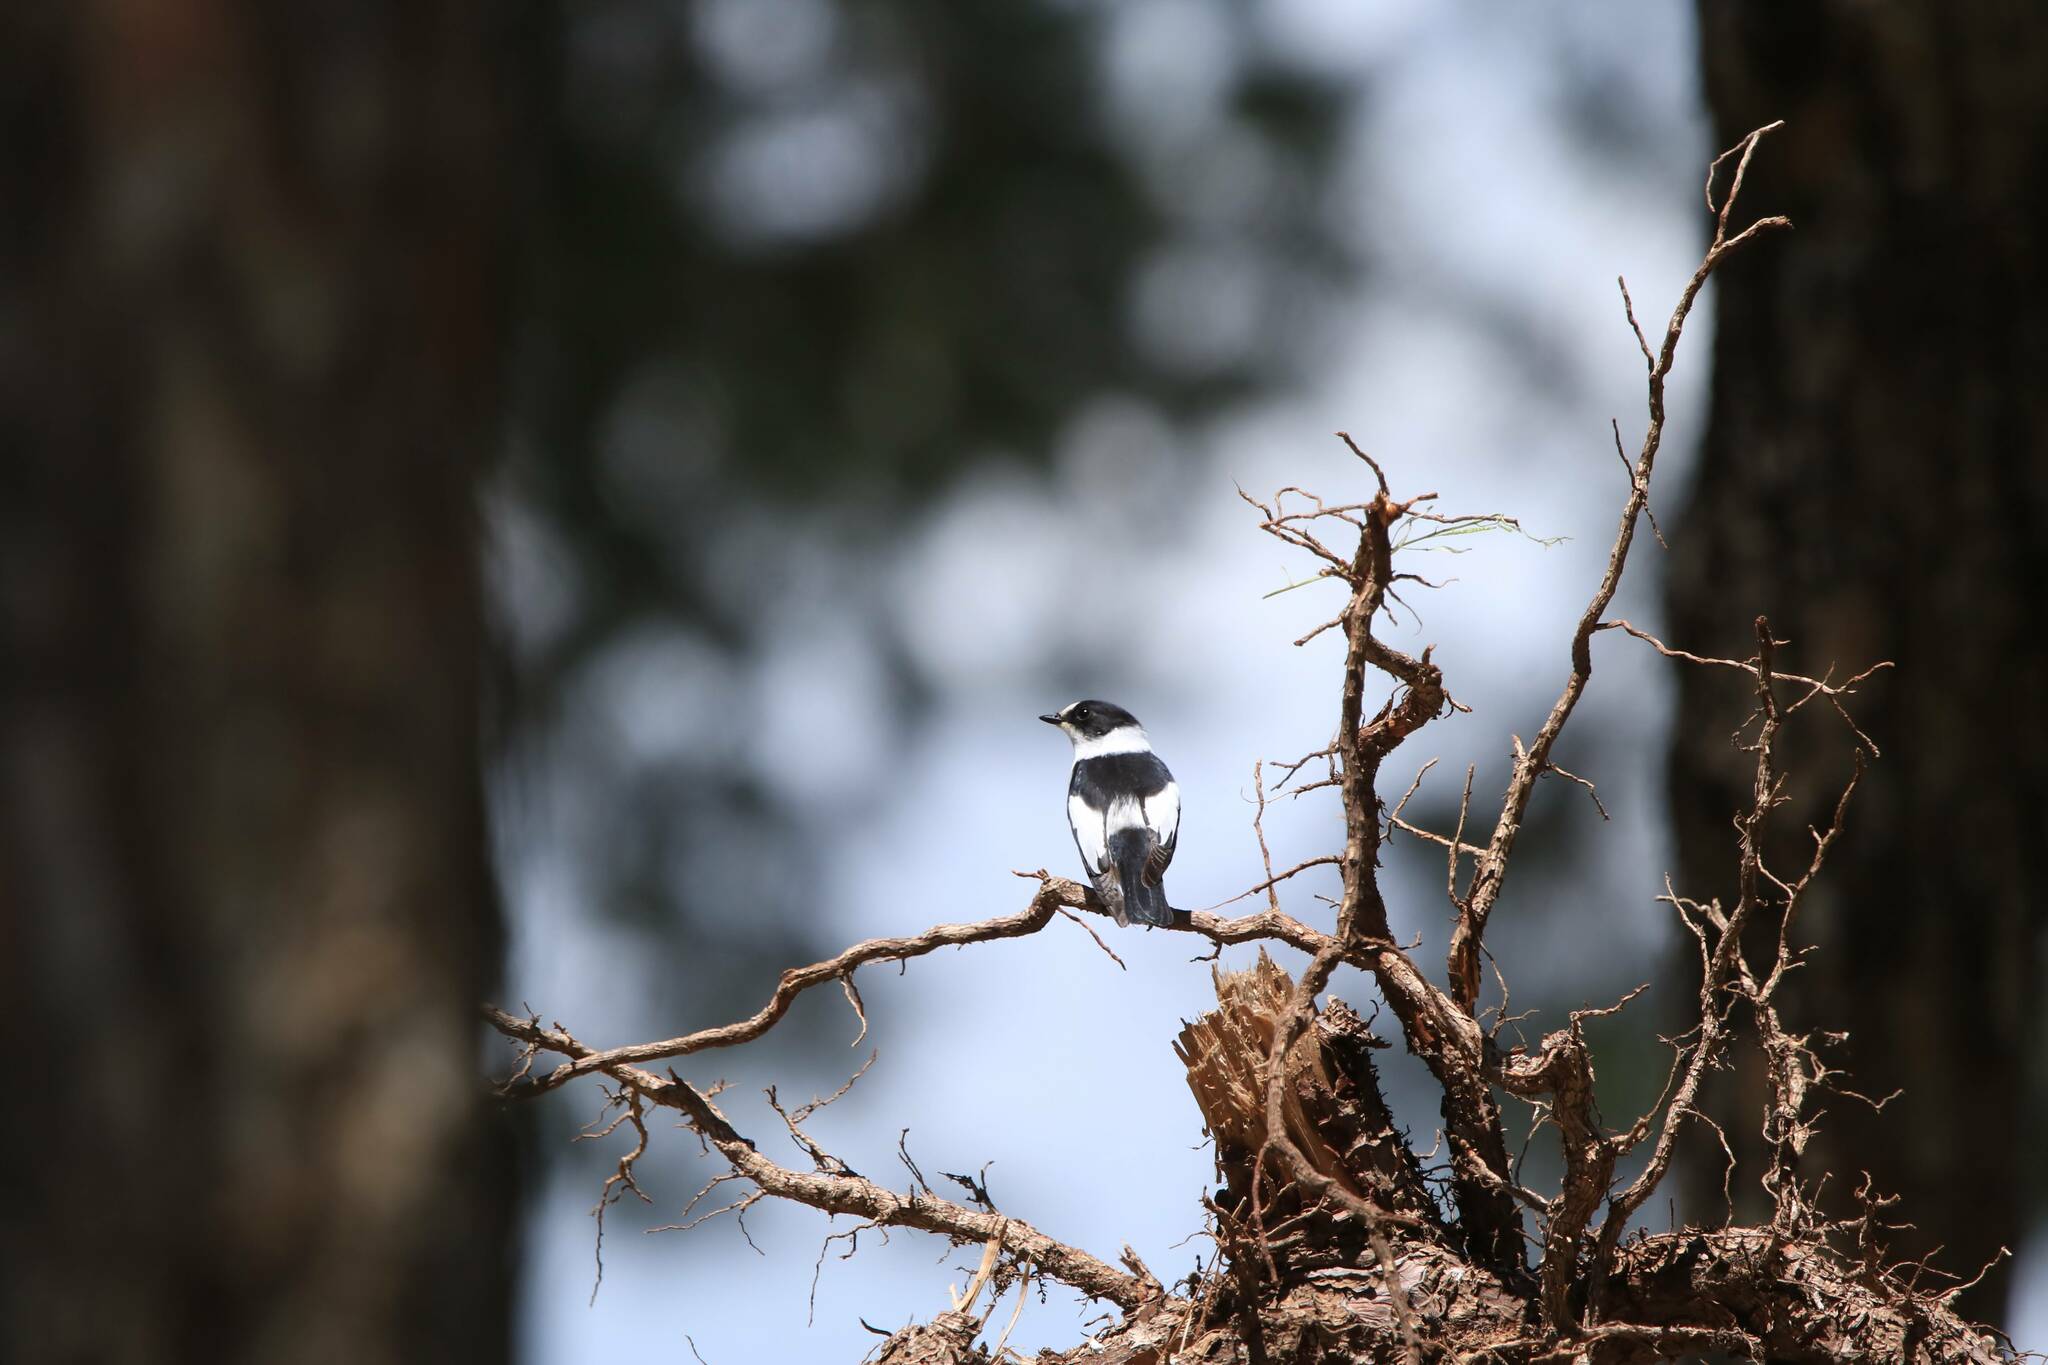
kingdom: Animalia
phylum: Chordata
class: Aves
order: Passeriformes
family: Muscicapidae
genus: Ficedula
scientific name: Ficedula albicollis
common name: Collared flycatcher
